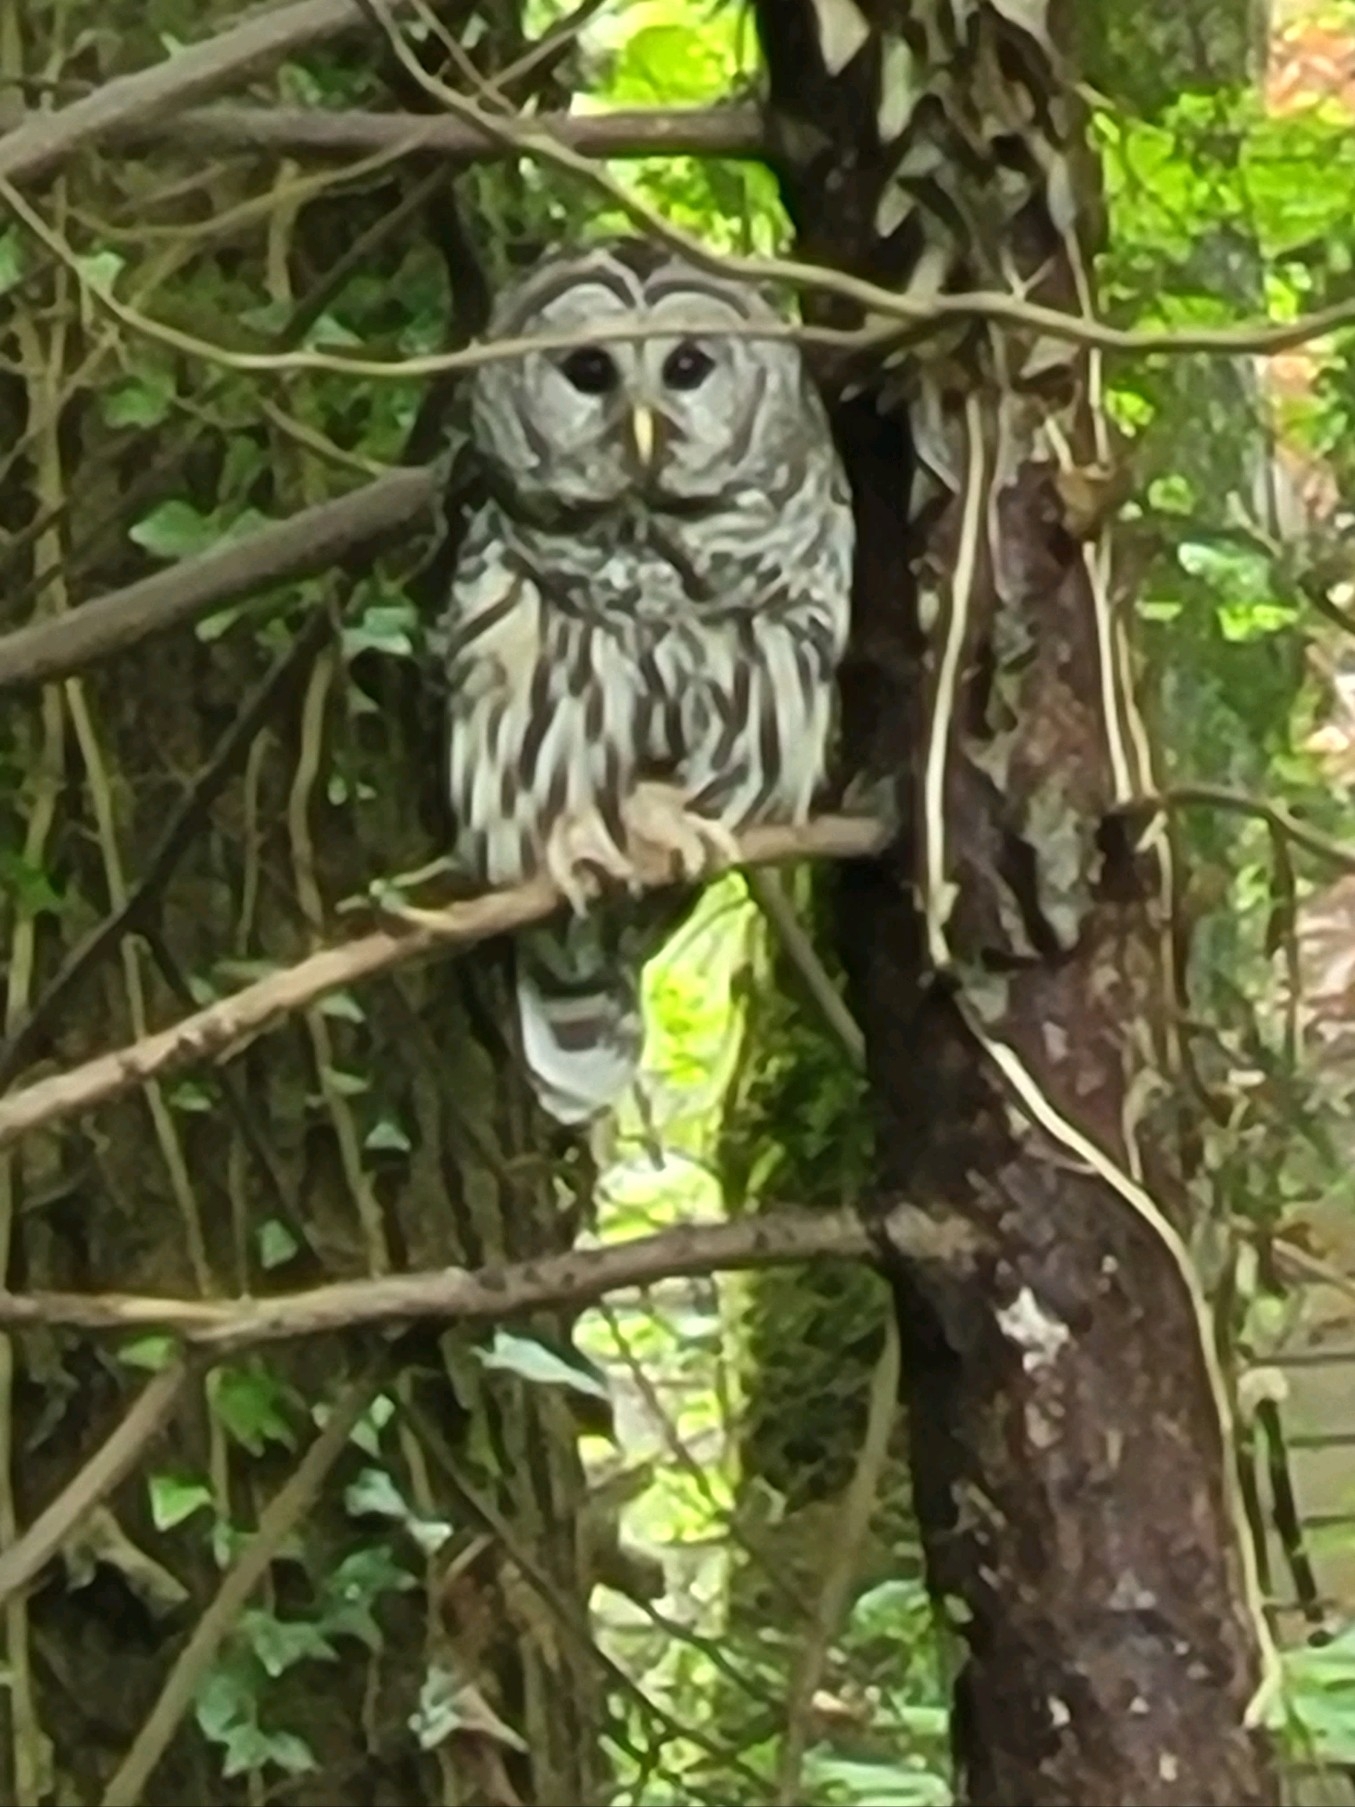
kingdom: Animalia
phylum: Chordata
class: Aves
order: Strigiformes
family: Strigidae
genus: Strix
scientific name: Strix varia
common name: Barred owl
